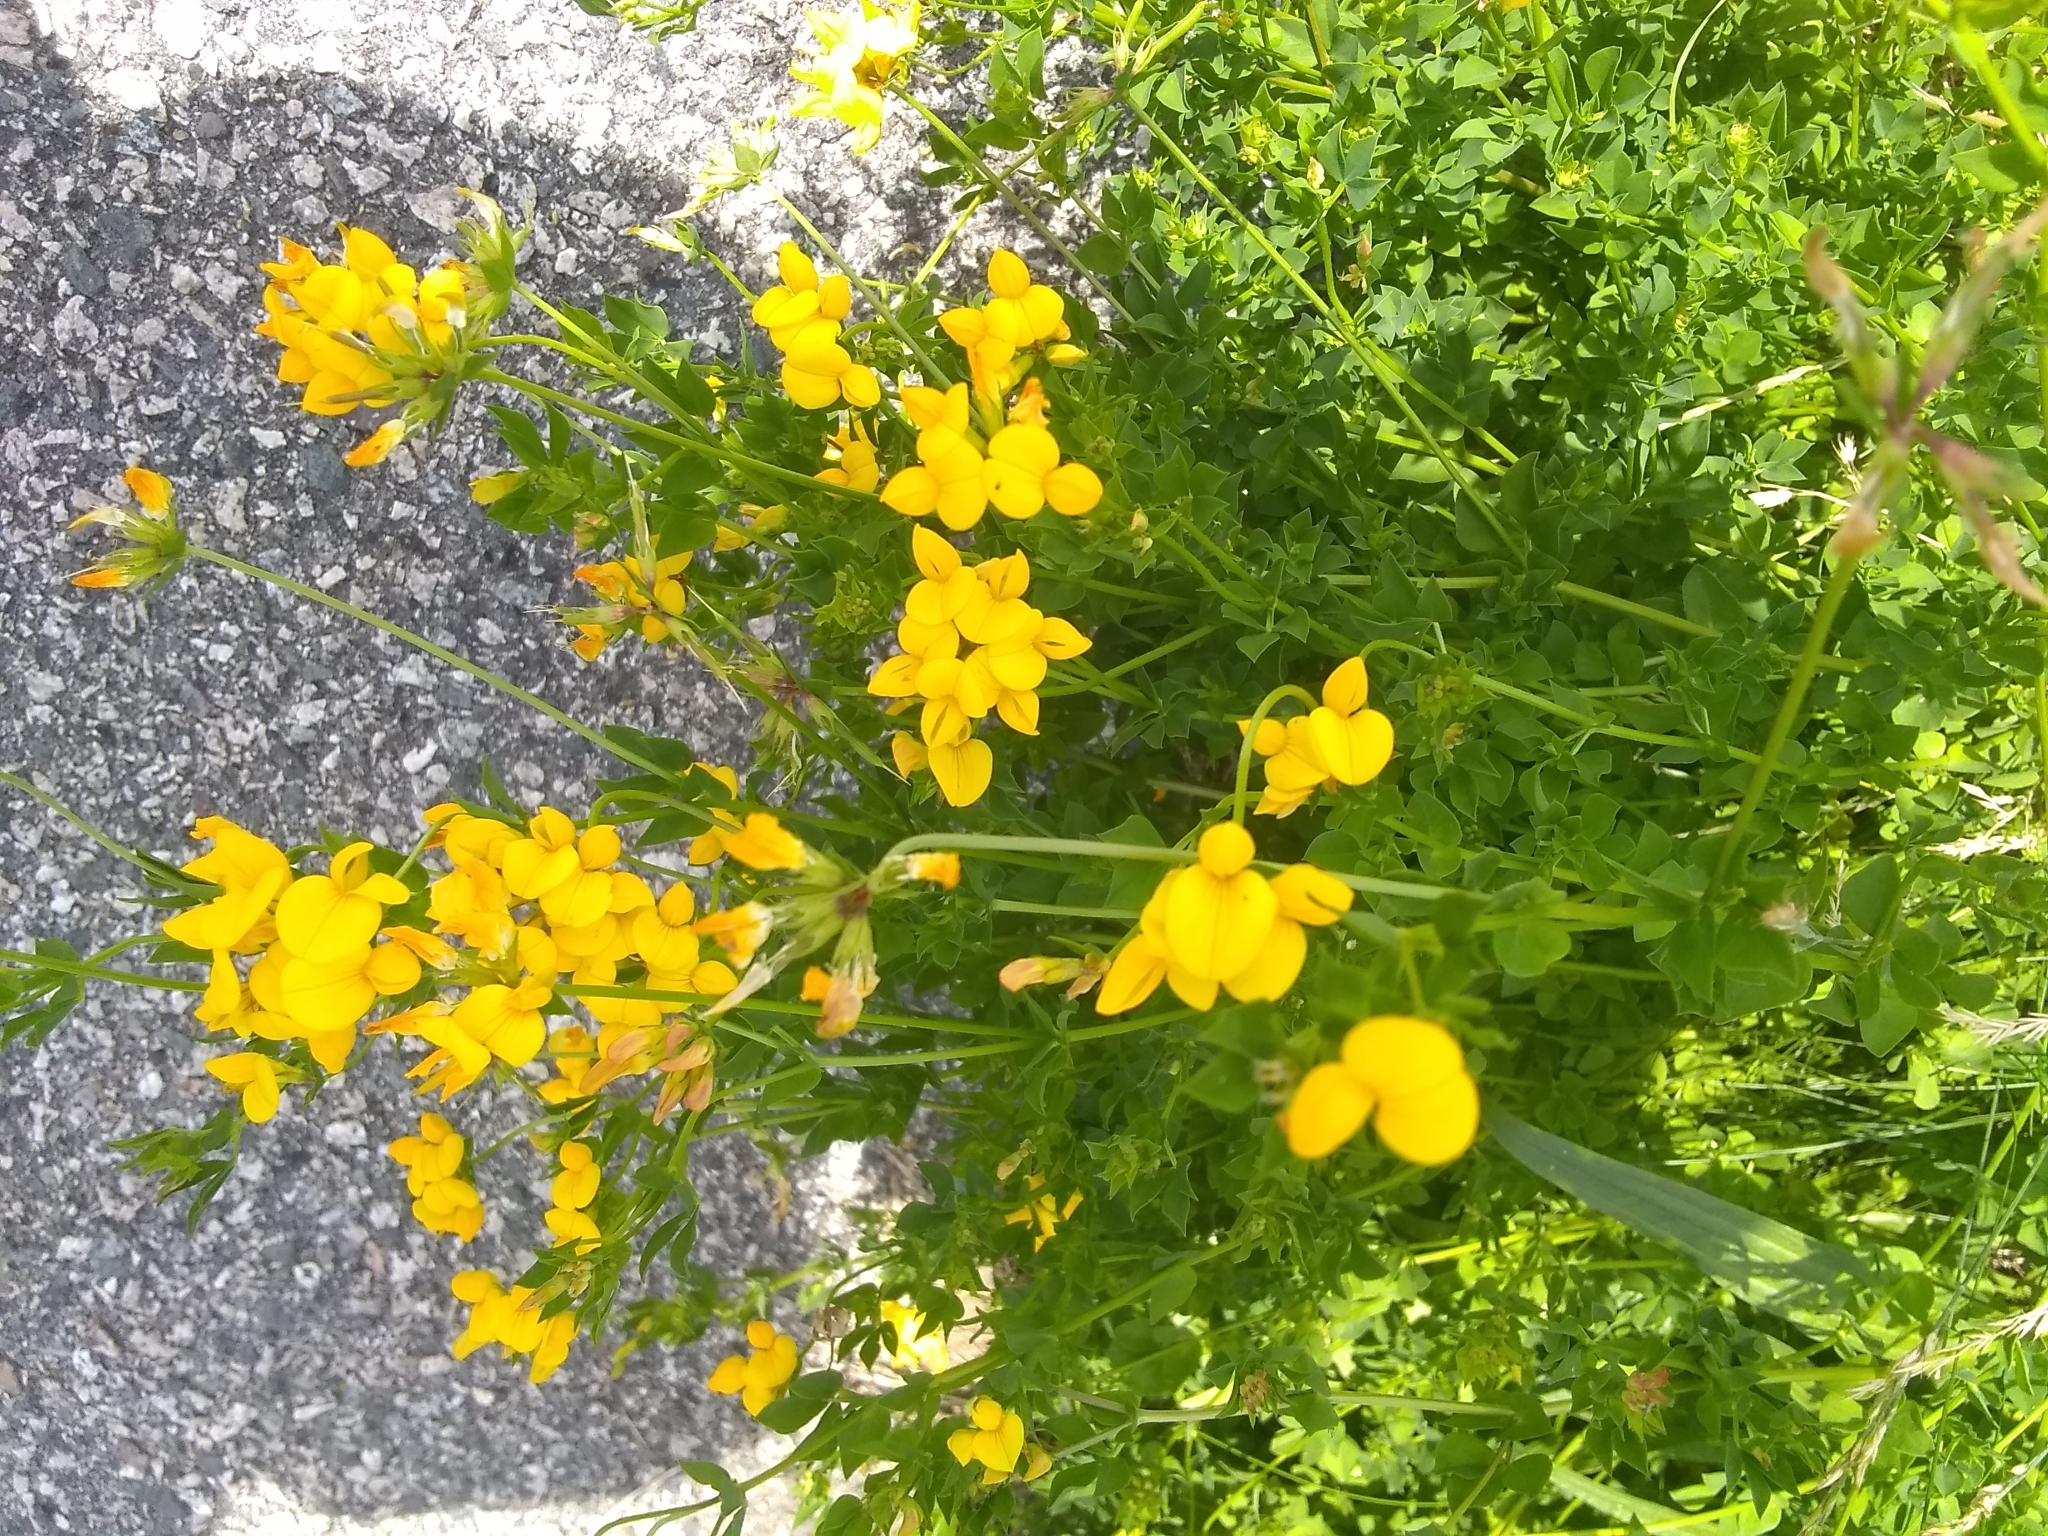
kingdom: Plantae
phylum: Tracheophyta
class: Magnoliopsida
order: Fabales
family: Fabaceae
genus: Lotus
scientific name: Lotus corniculatus
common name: Common bird's-foot-trefoil
